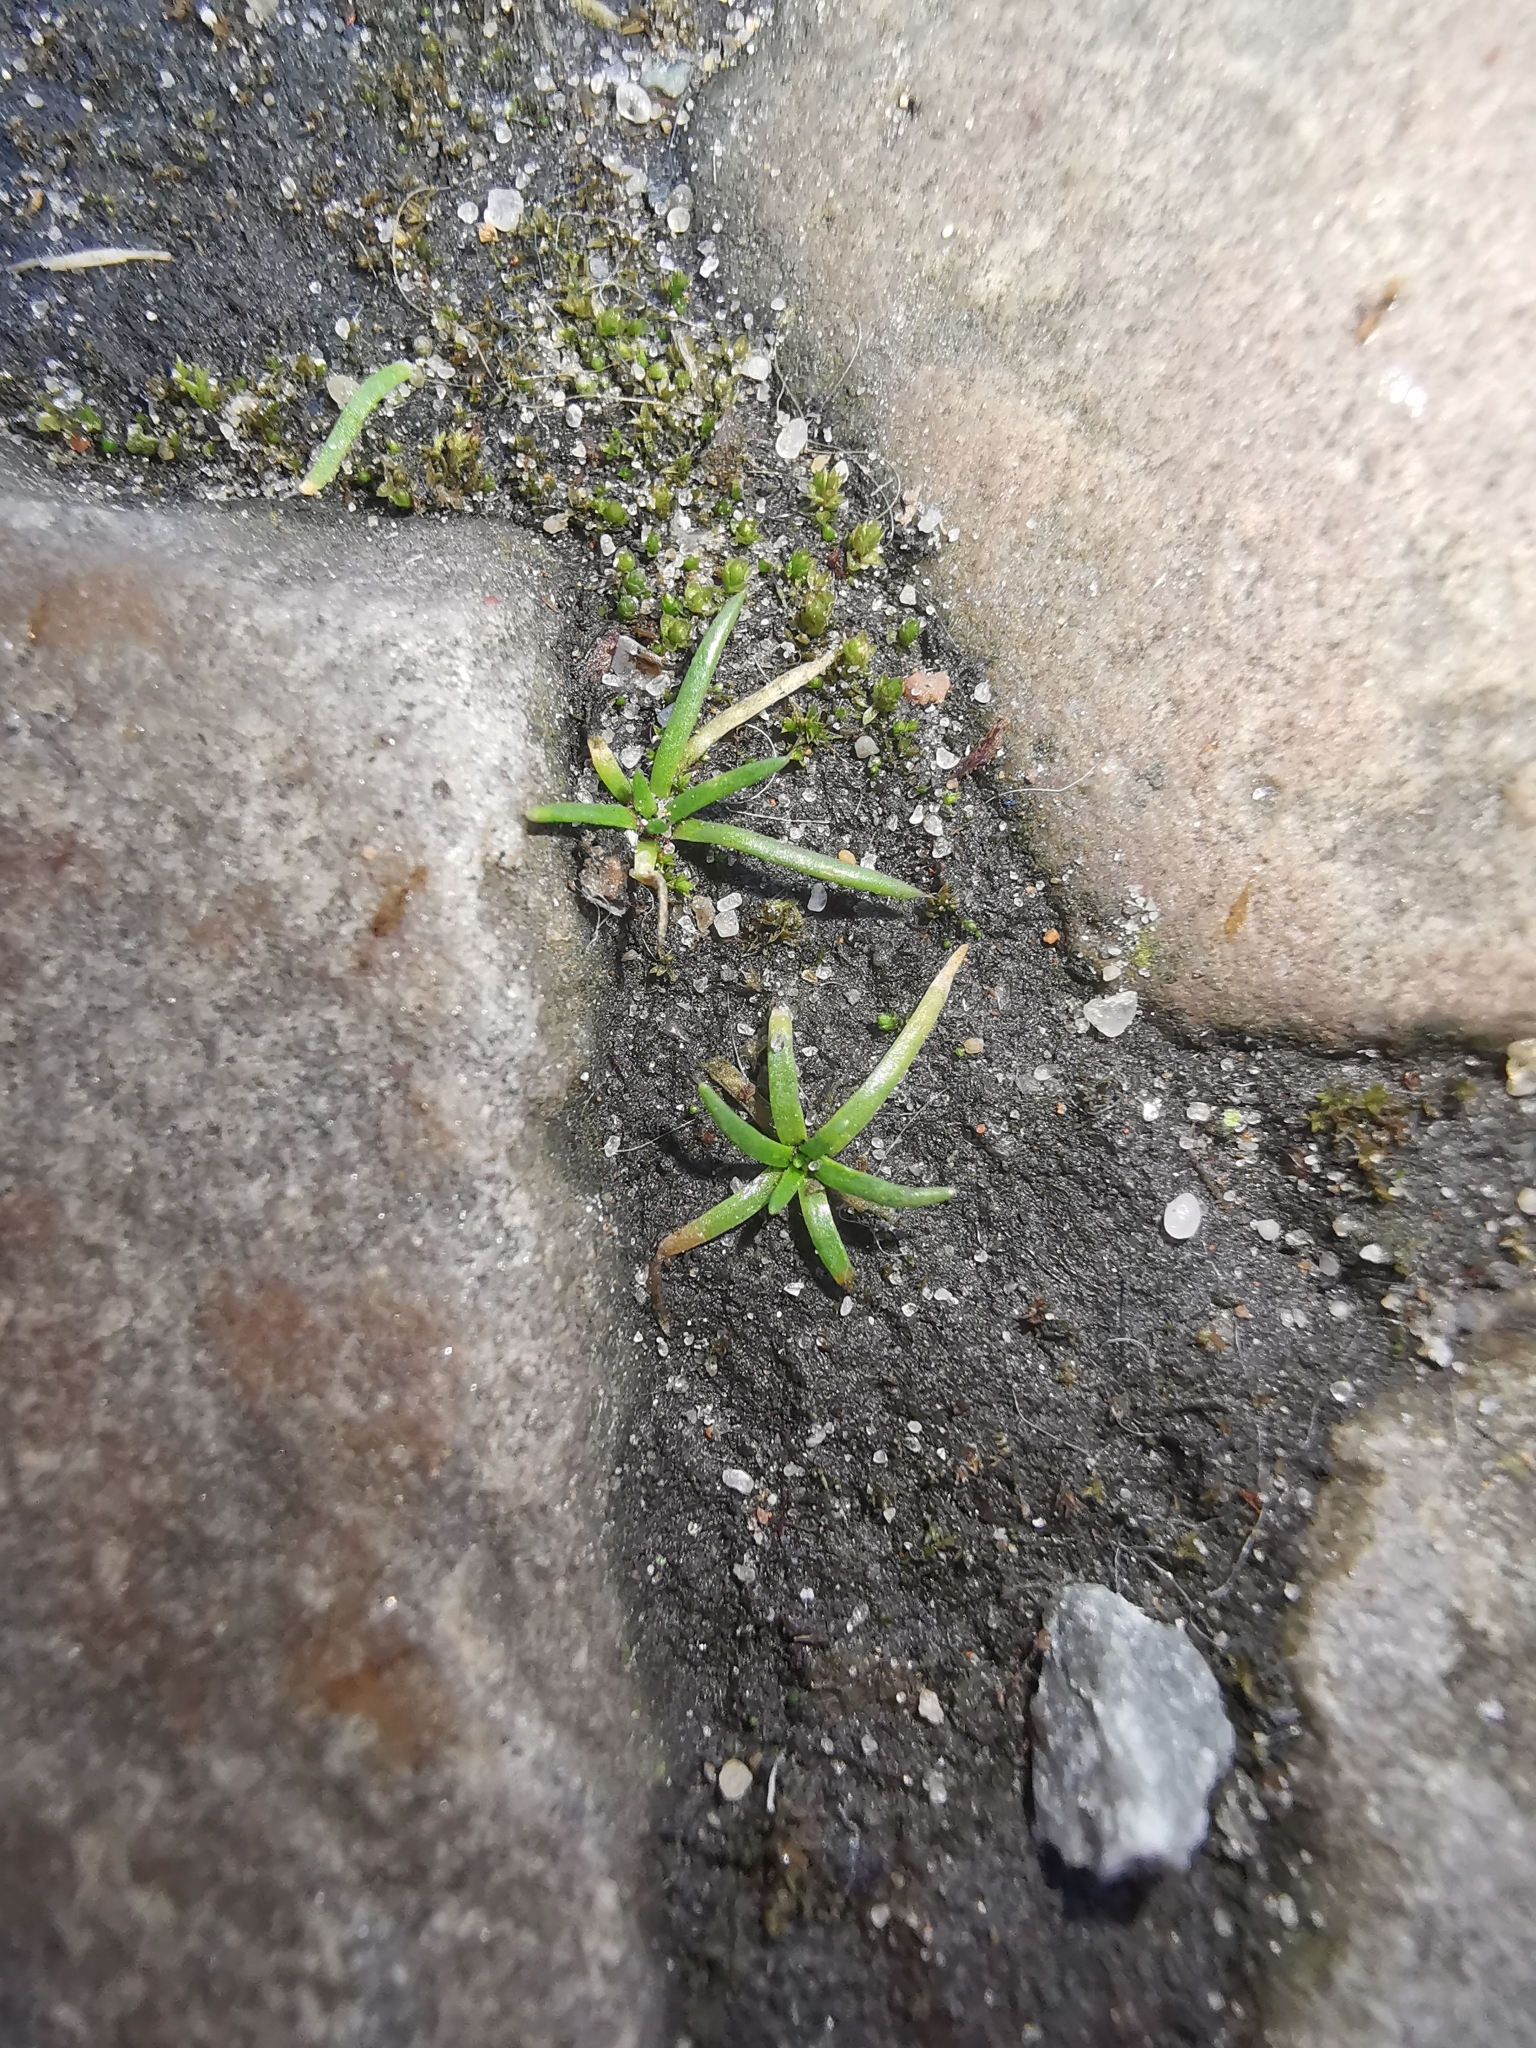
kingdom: Plantae
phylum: Tracheophyta
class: Magnoliopsida
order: Caryophyllales
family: Caryophyllaceae
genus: Sagina
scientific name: Sagina procumbens
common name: Procumbent pearlwort
